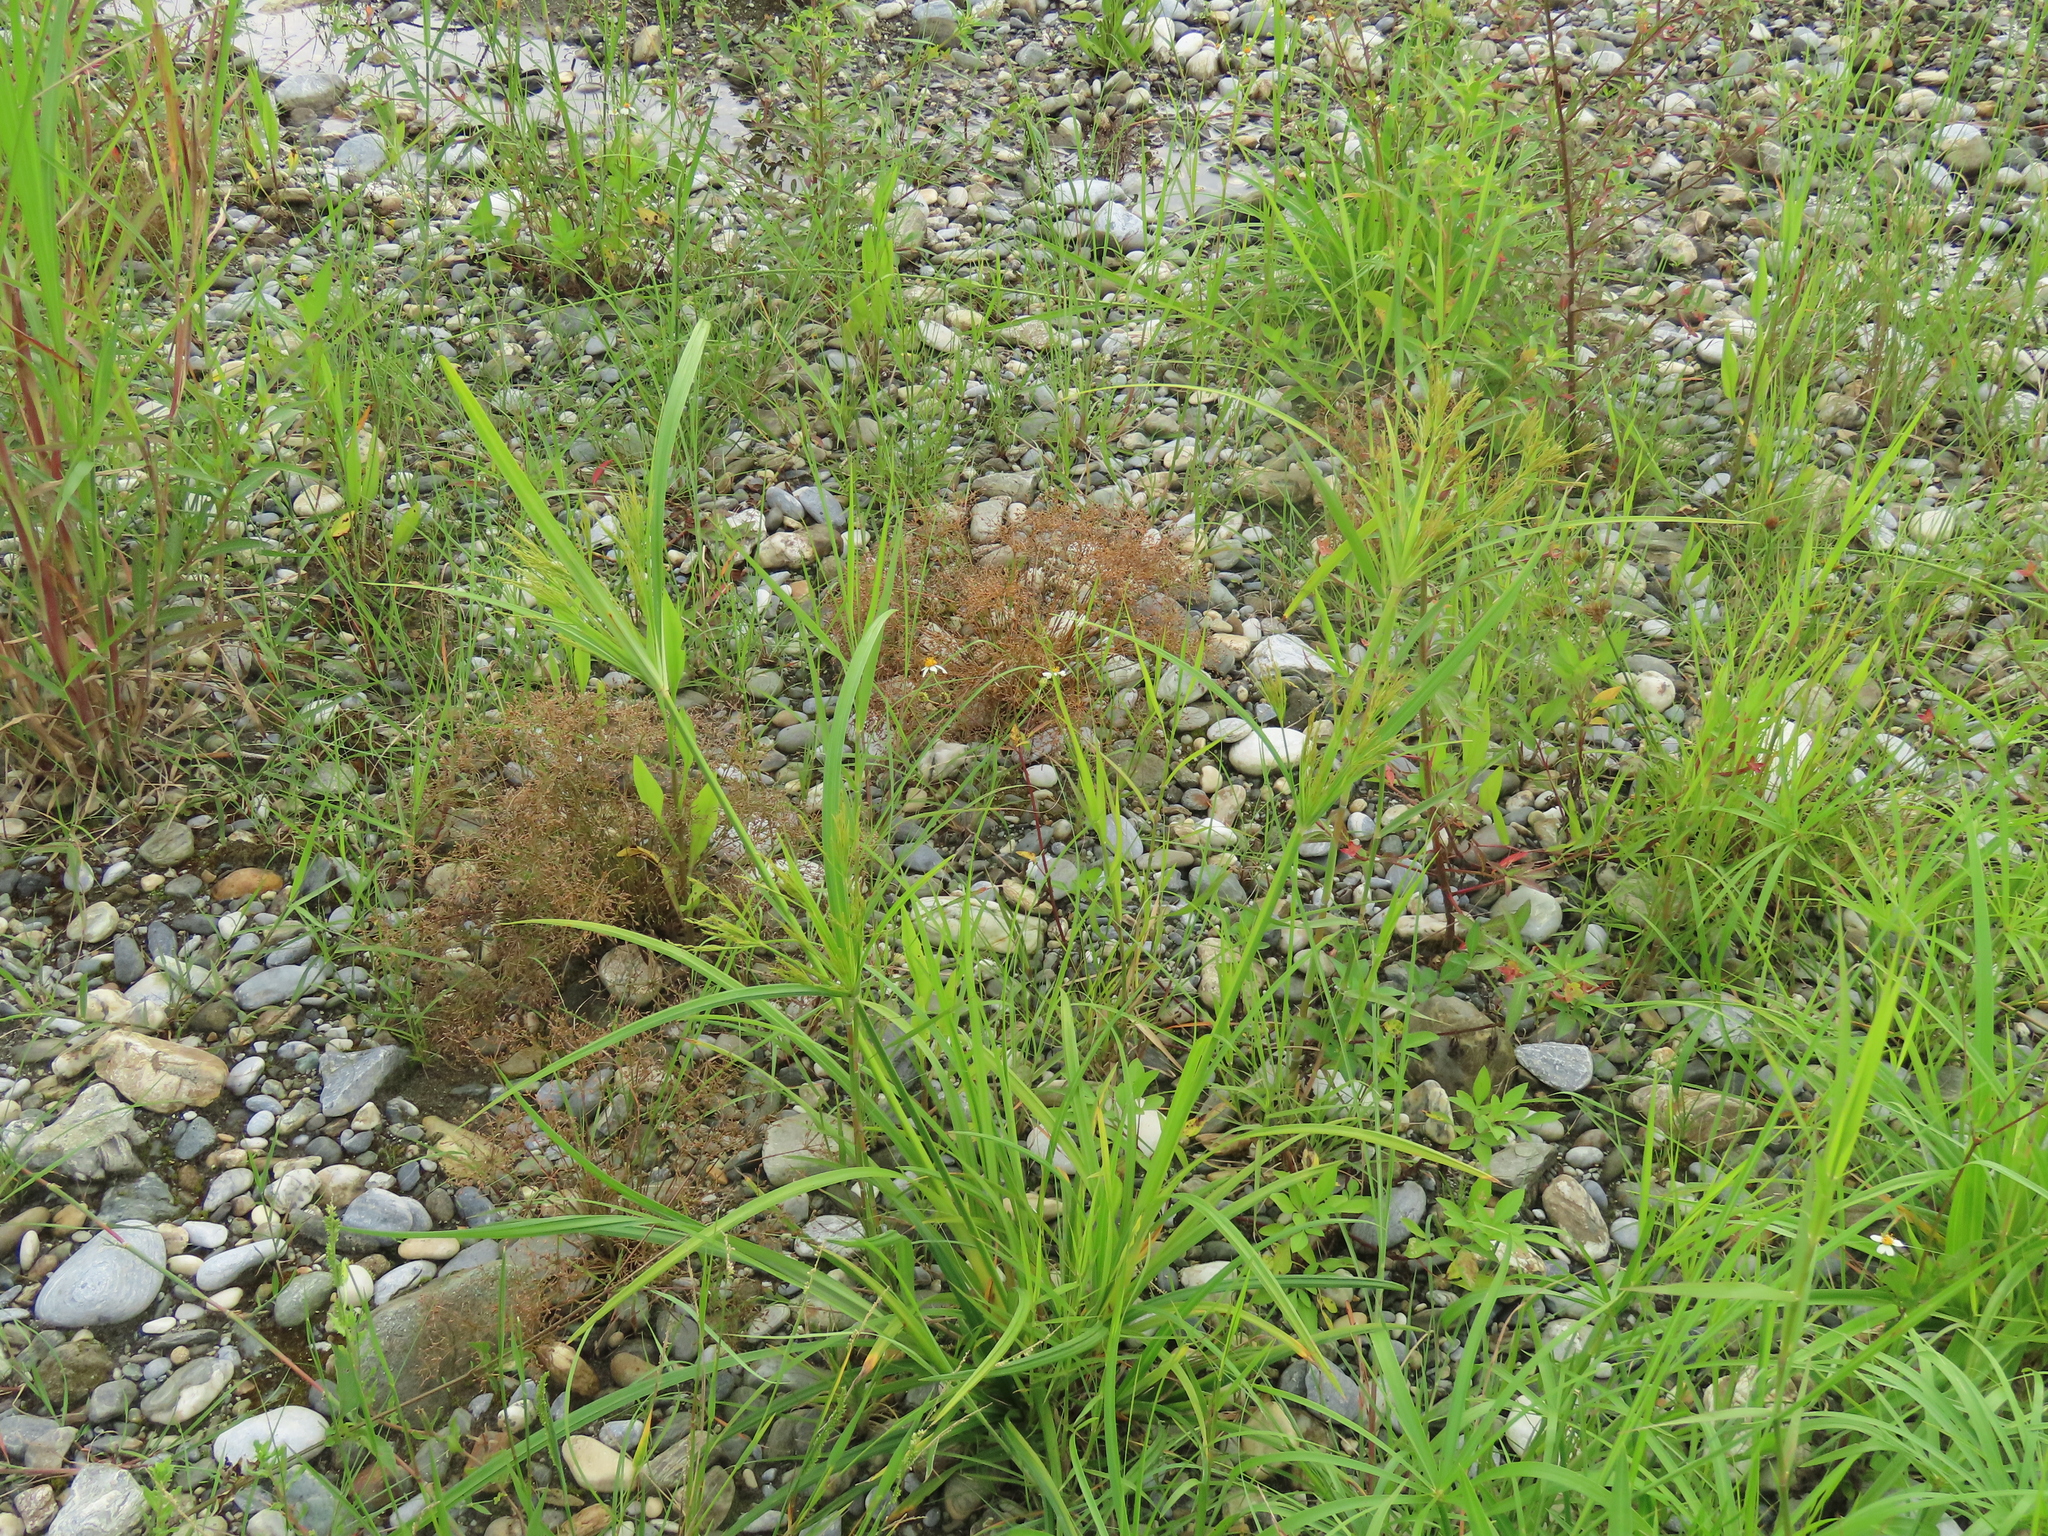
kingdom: Plantae
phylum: Tracheophyta
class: Liliopsida
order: Poales
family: Cyperaceae
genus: Cyperus
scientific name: Cyperus nutans
